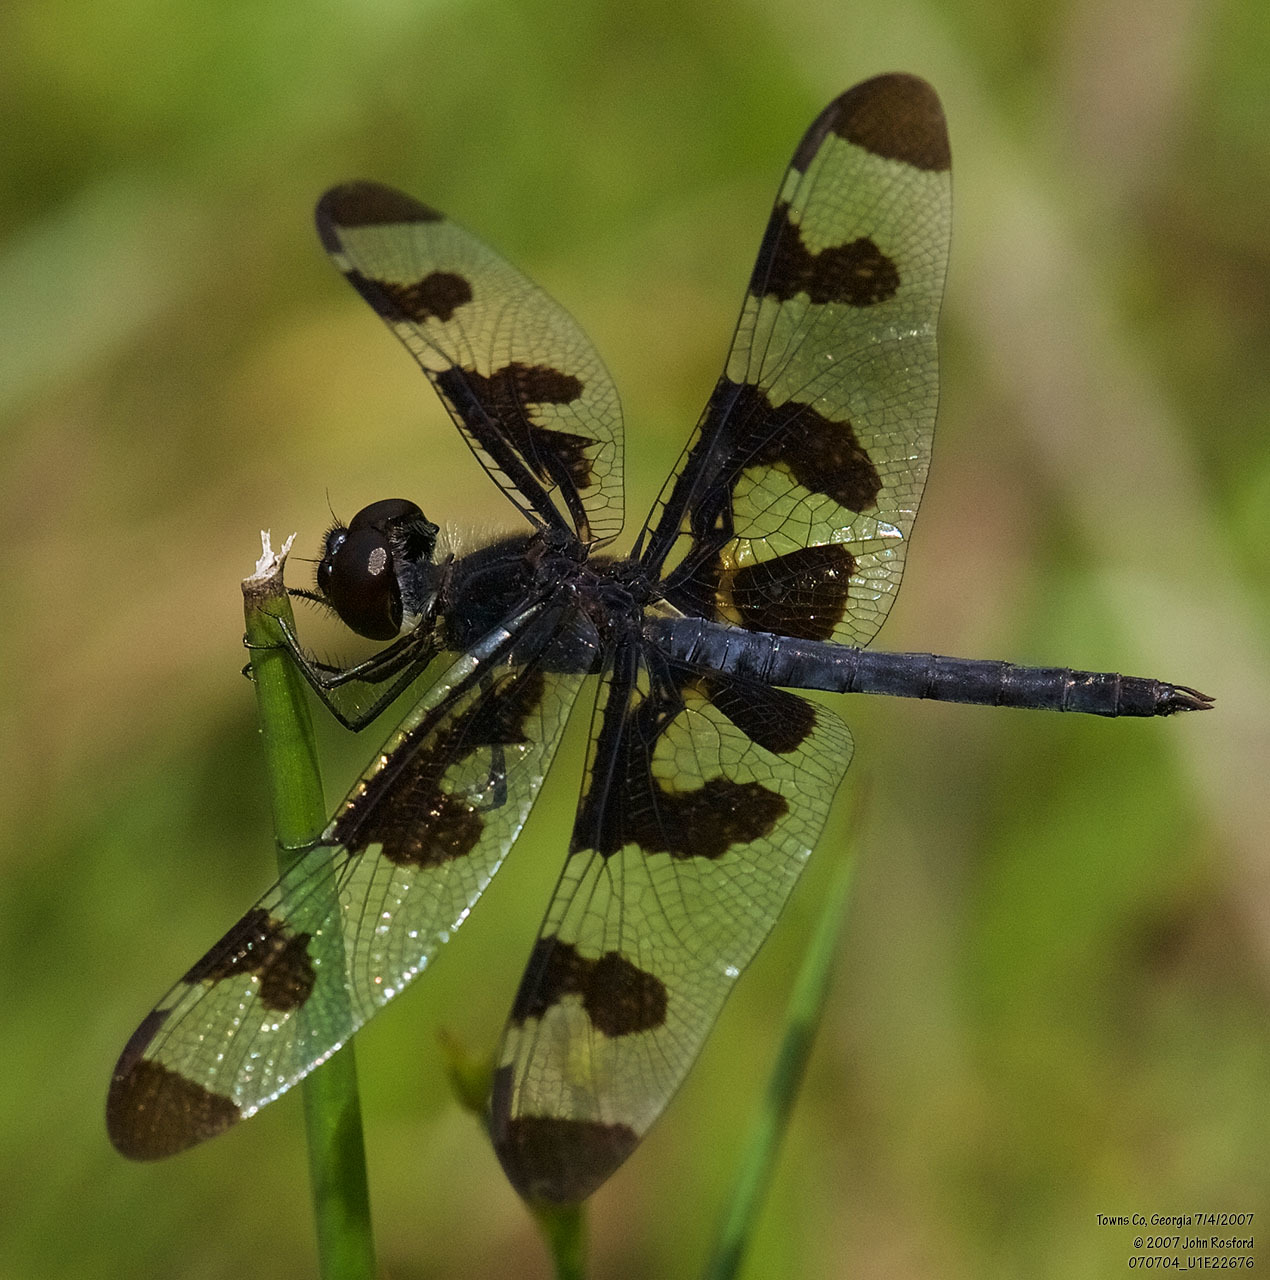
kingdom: Animalia
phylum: Arthropoda
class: Insecta
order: Odonata
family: Libellulidae
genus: Celithemis
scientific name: Celithemis fasciata
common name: Banded pennant
